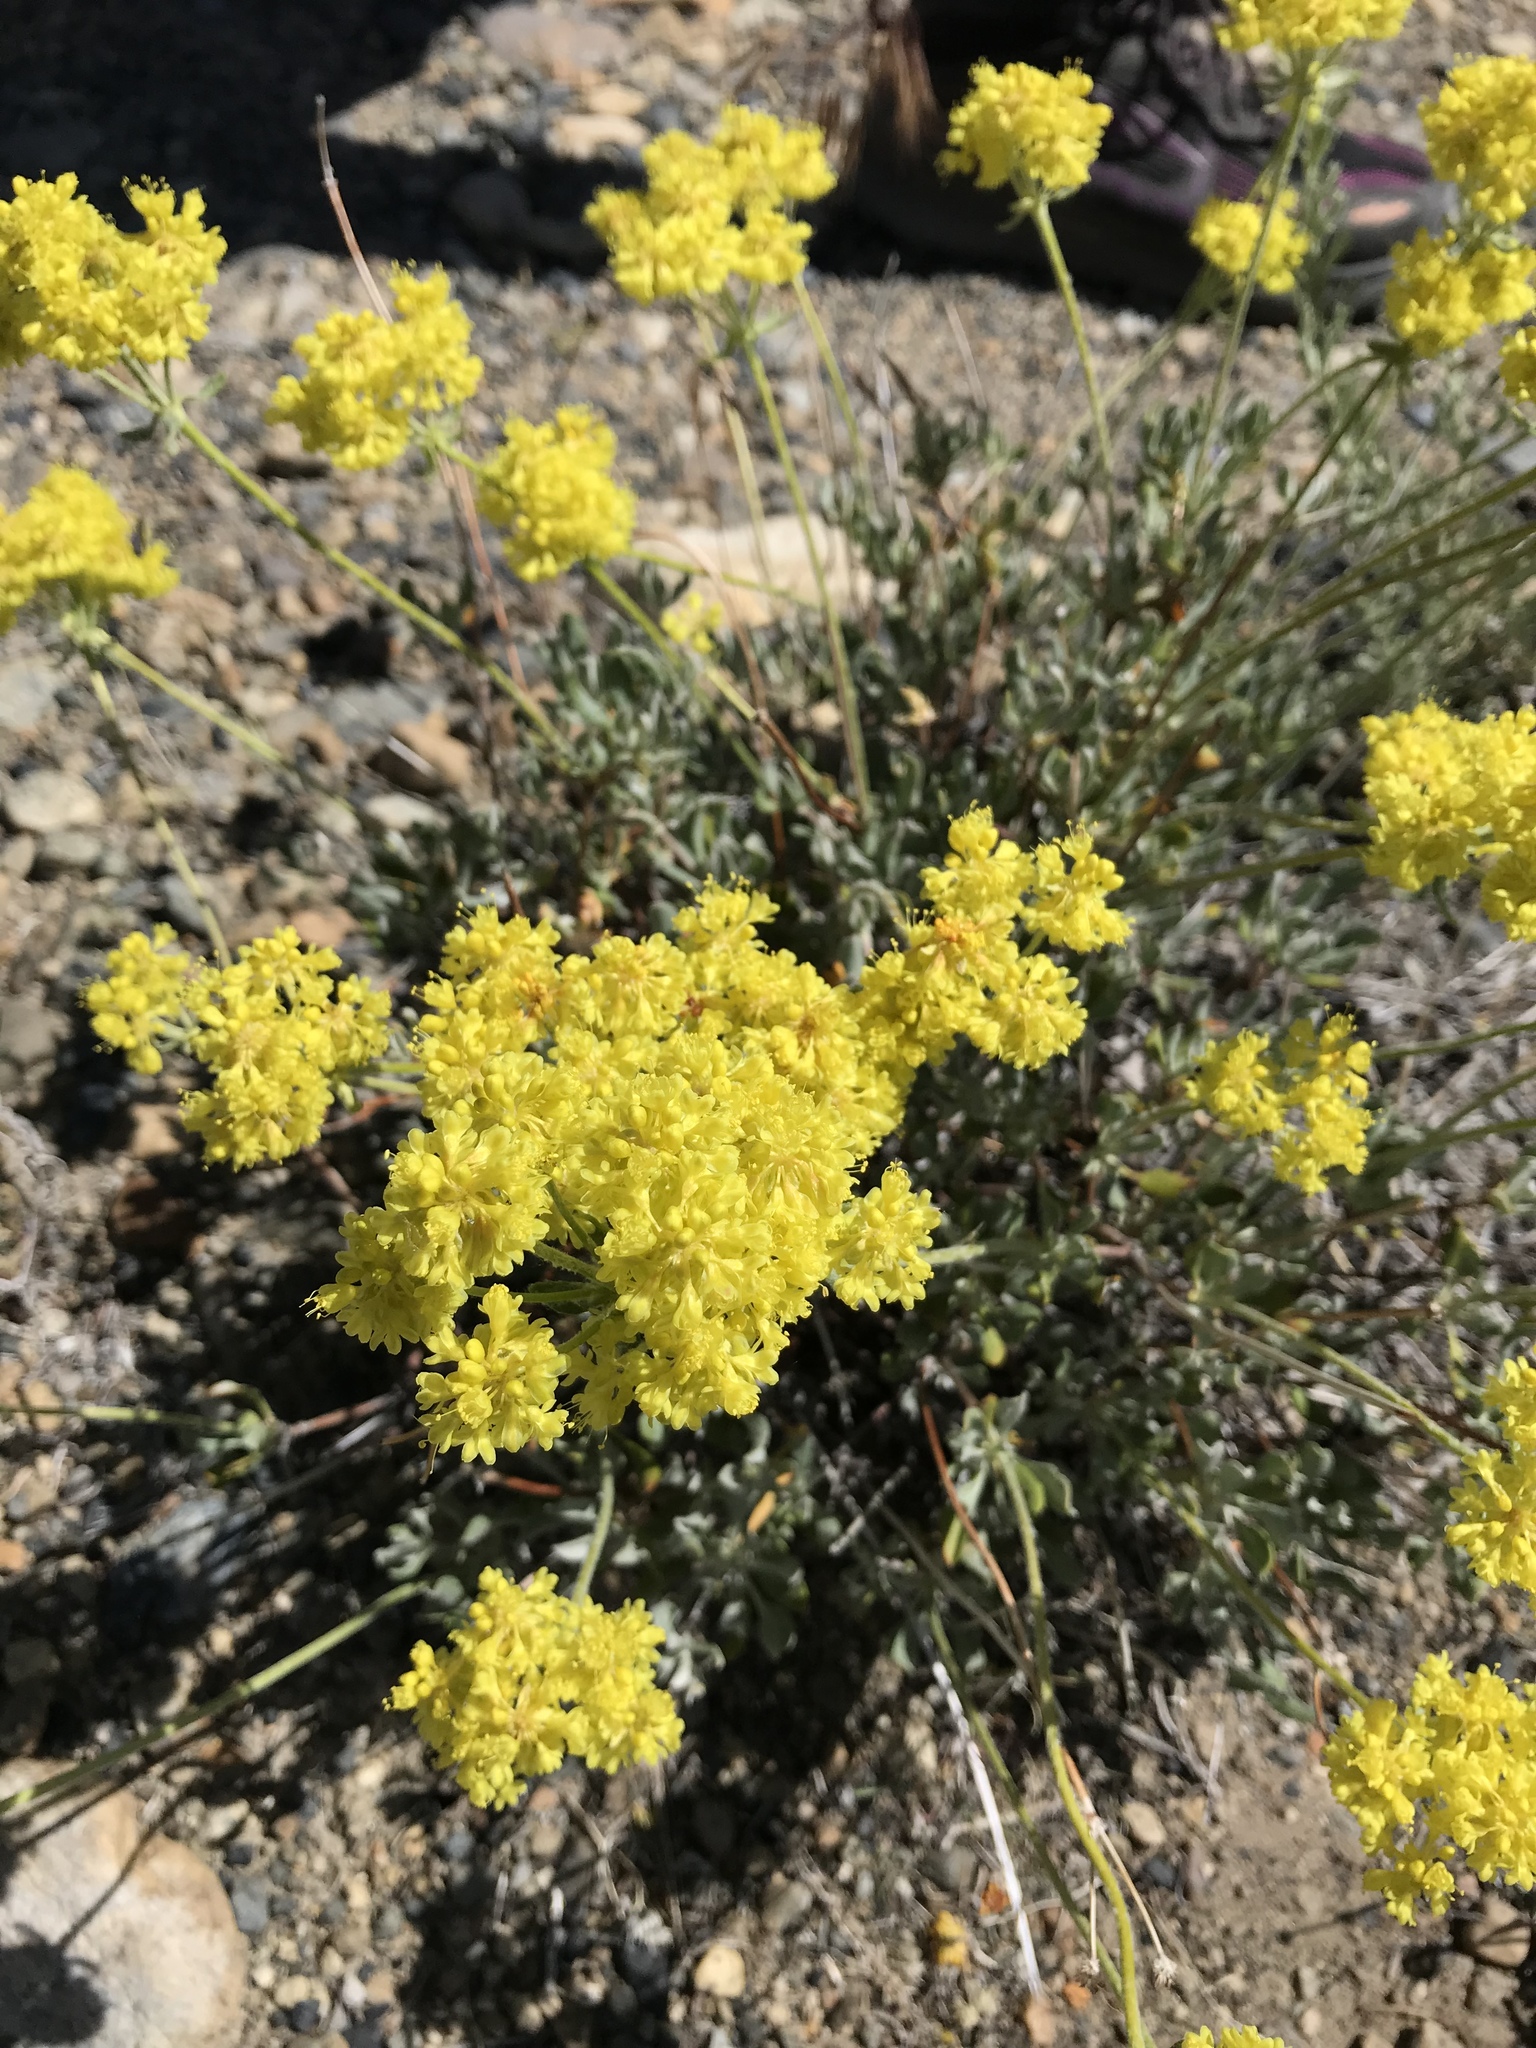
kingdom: Plantae
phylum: Tracheophyta
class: Magnoliopsida
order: Caryophyllales
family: Polygonaceae
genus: Eriogonum
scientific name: Eriogonum umbellatum
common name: Sulfur-buckwheat
